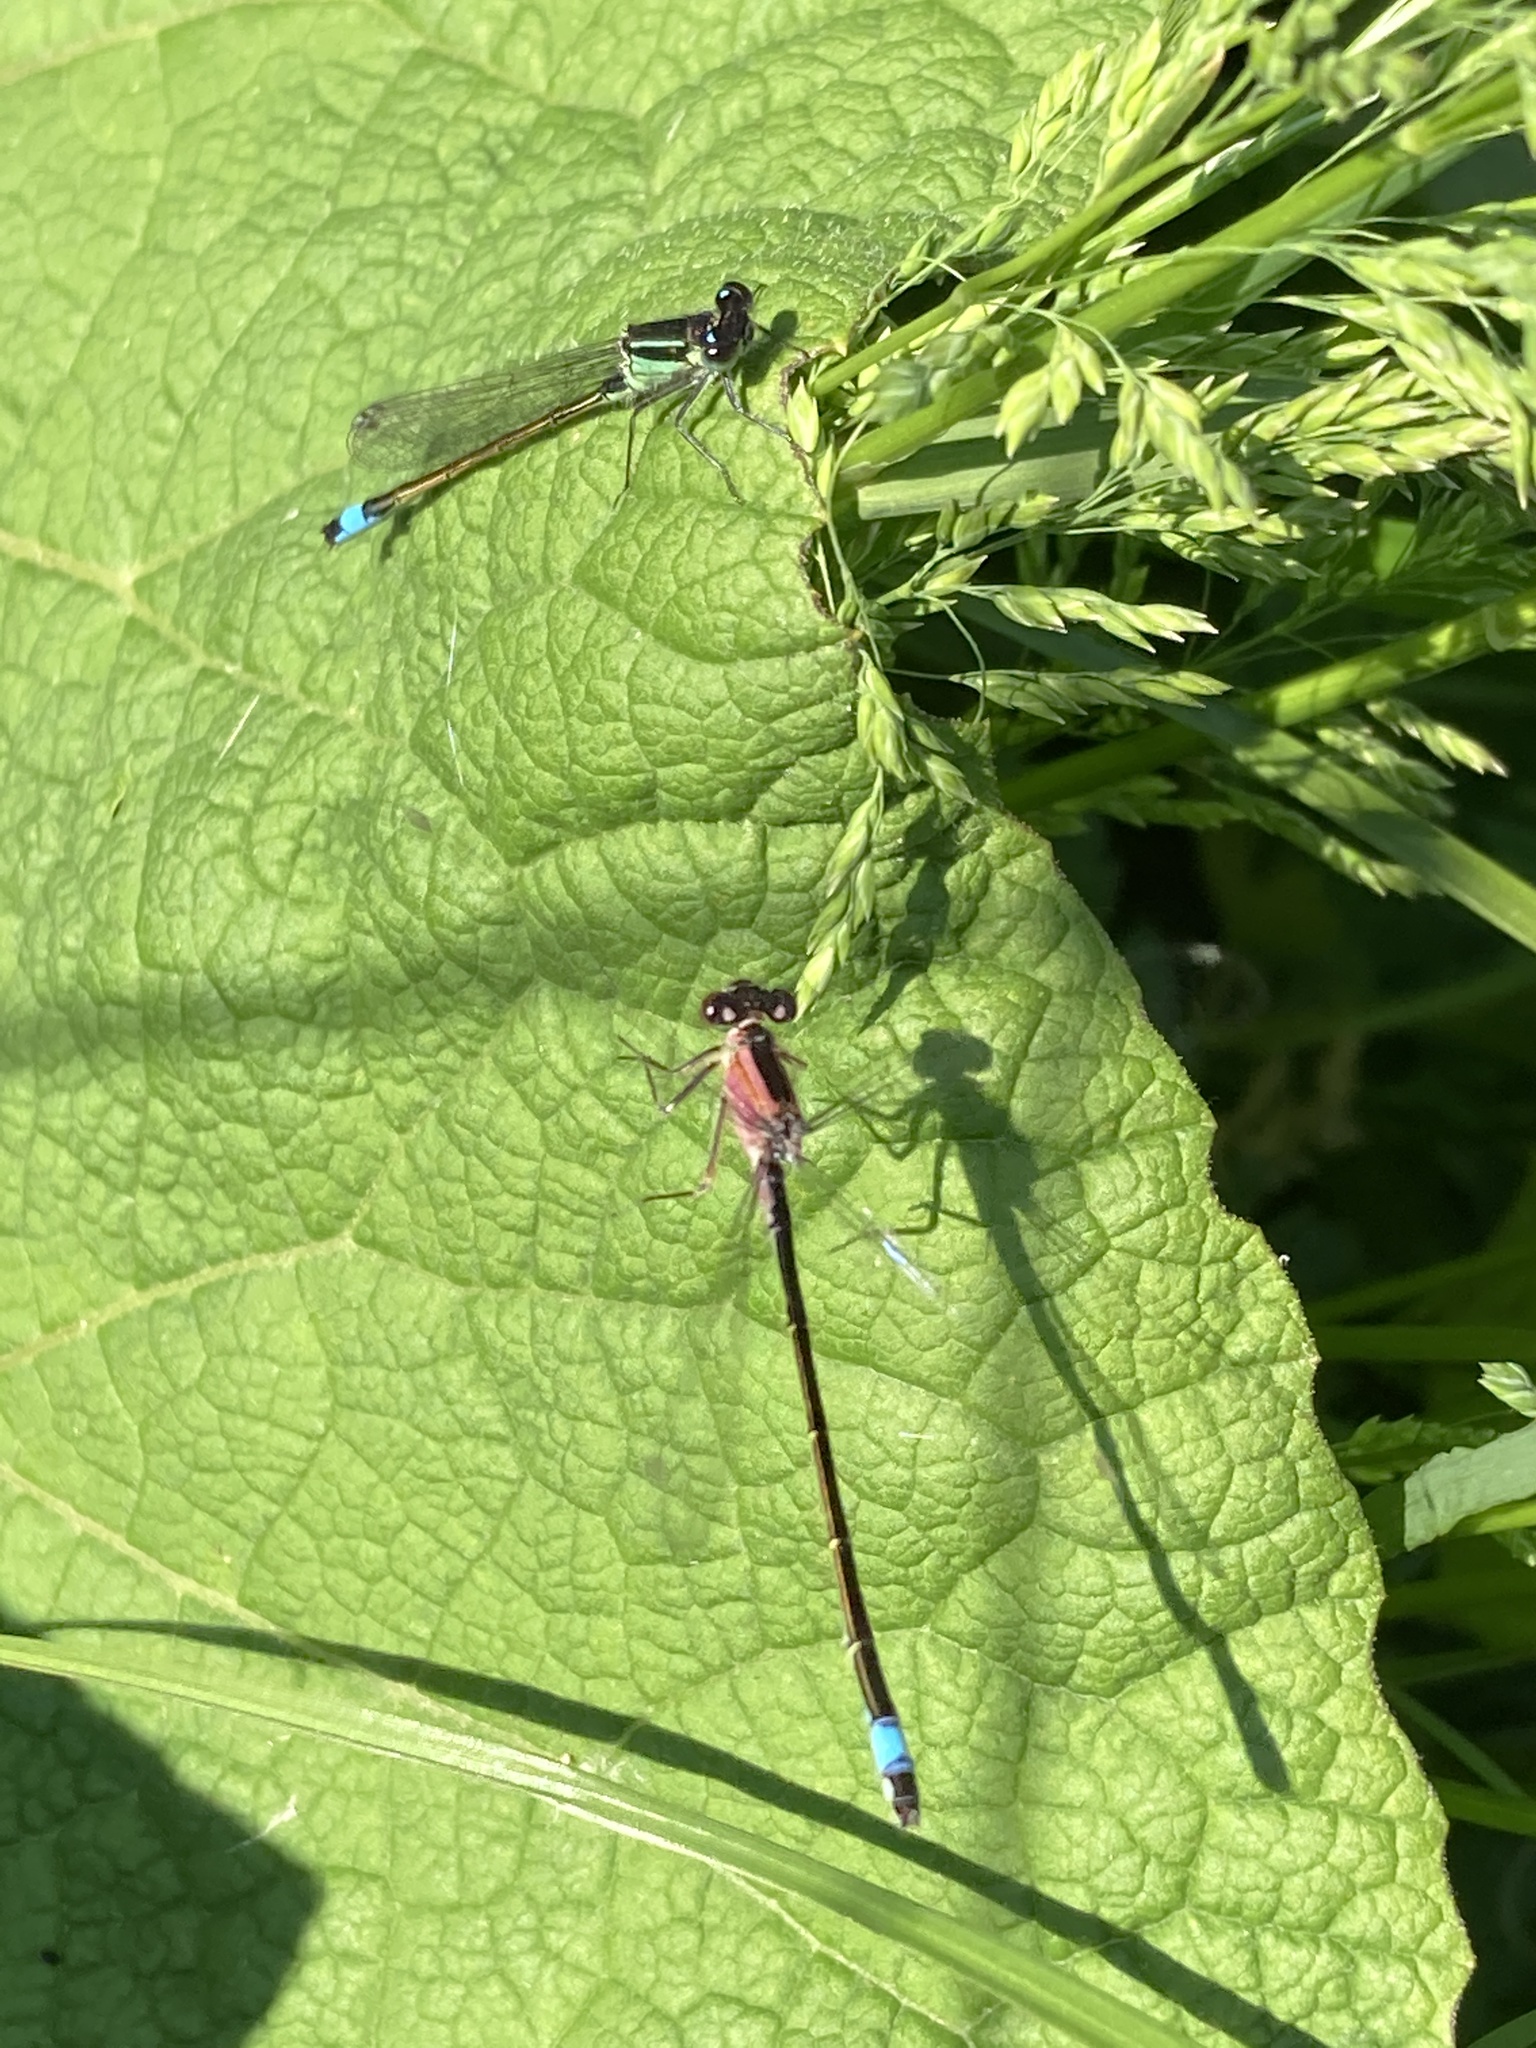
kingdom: Animalia
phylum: Arthropoda
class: Insecta
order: Odonata
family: Coenagrionidae
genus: Ischnura
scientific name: Ischnura elegans
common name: Blue-tailed damselfly
